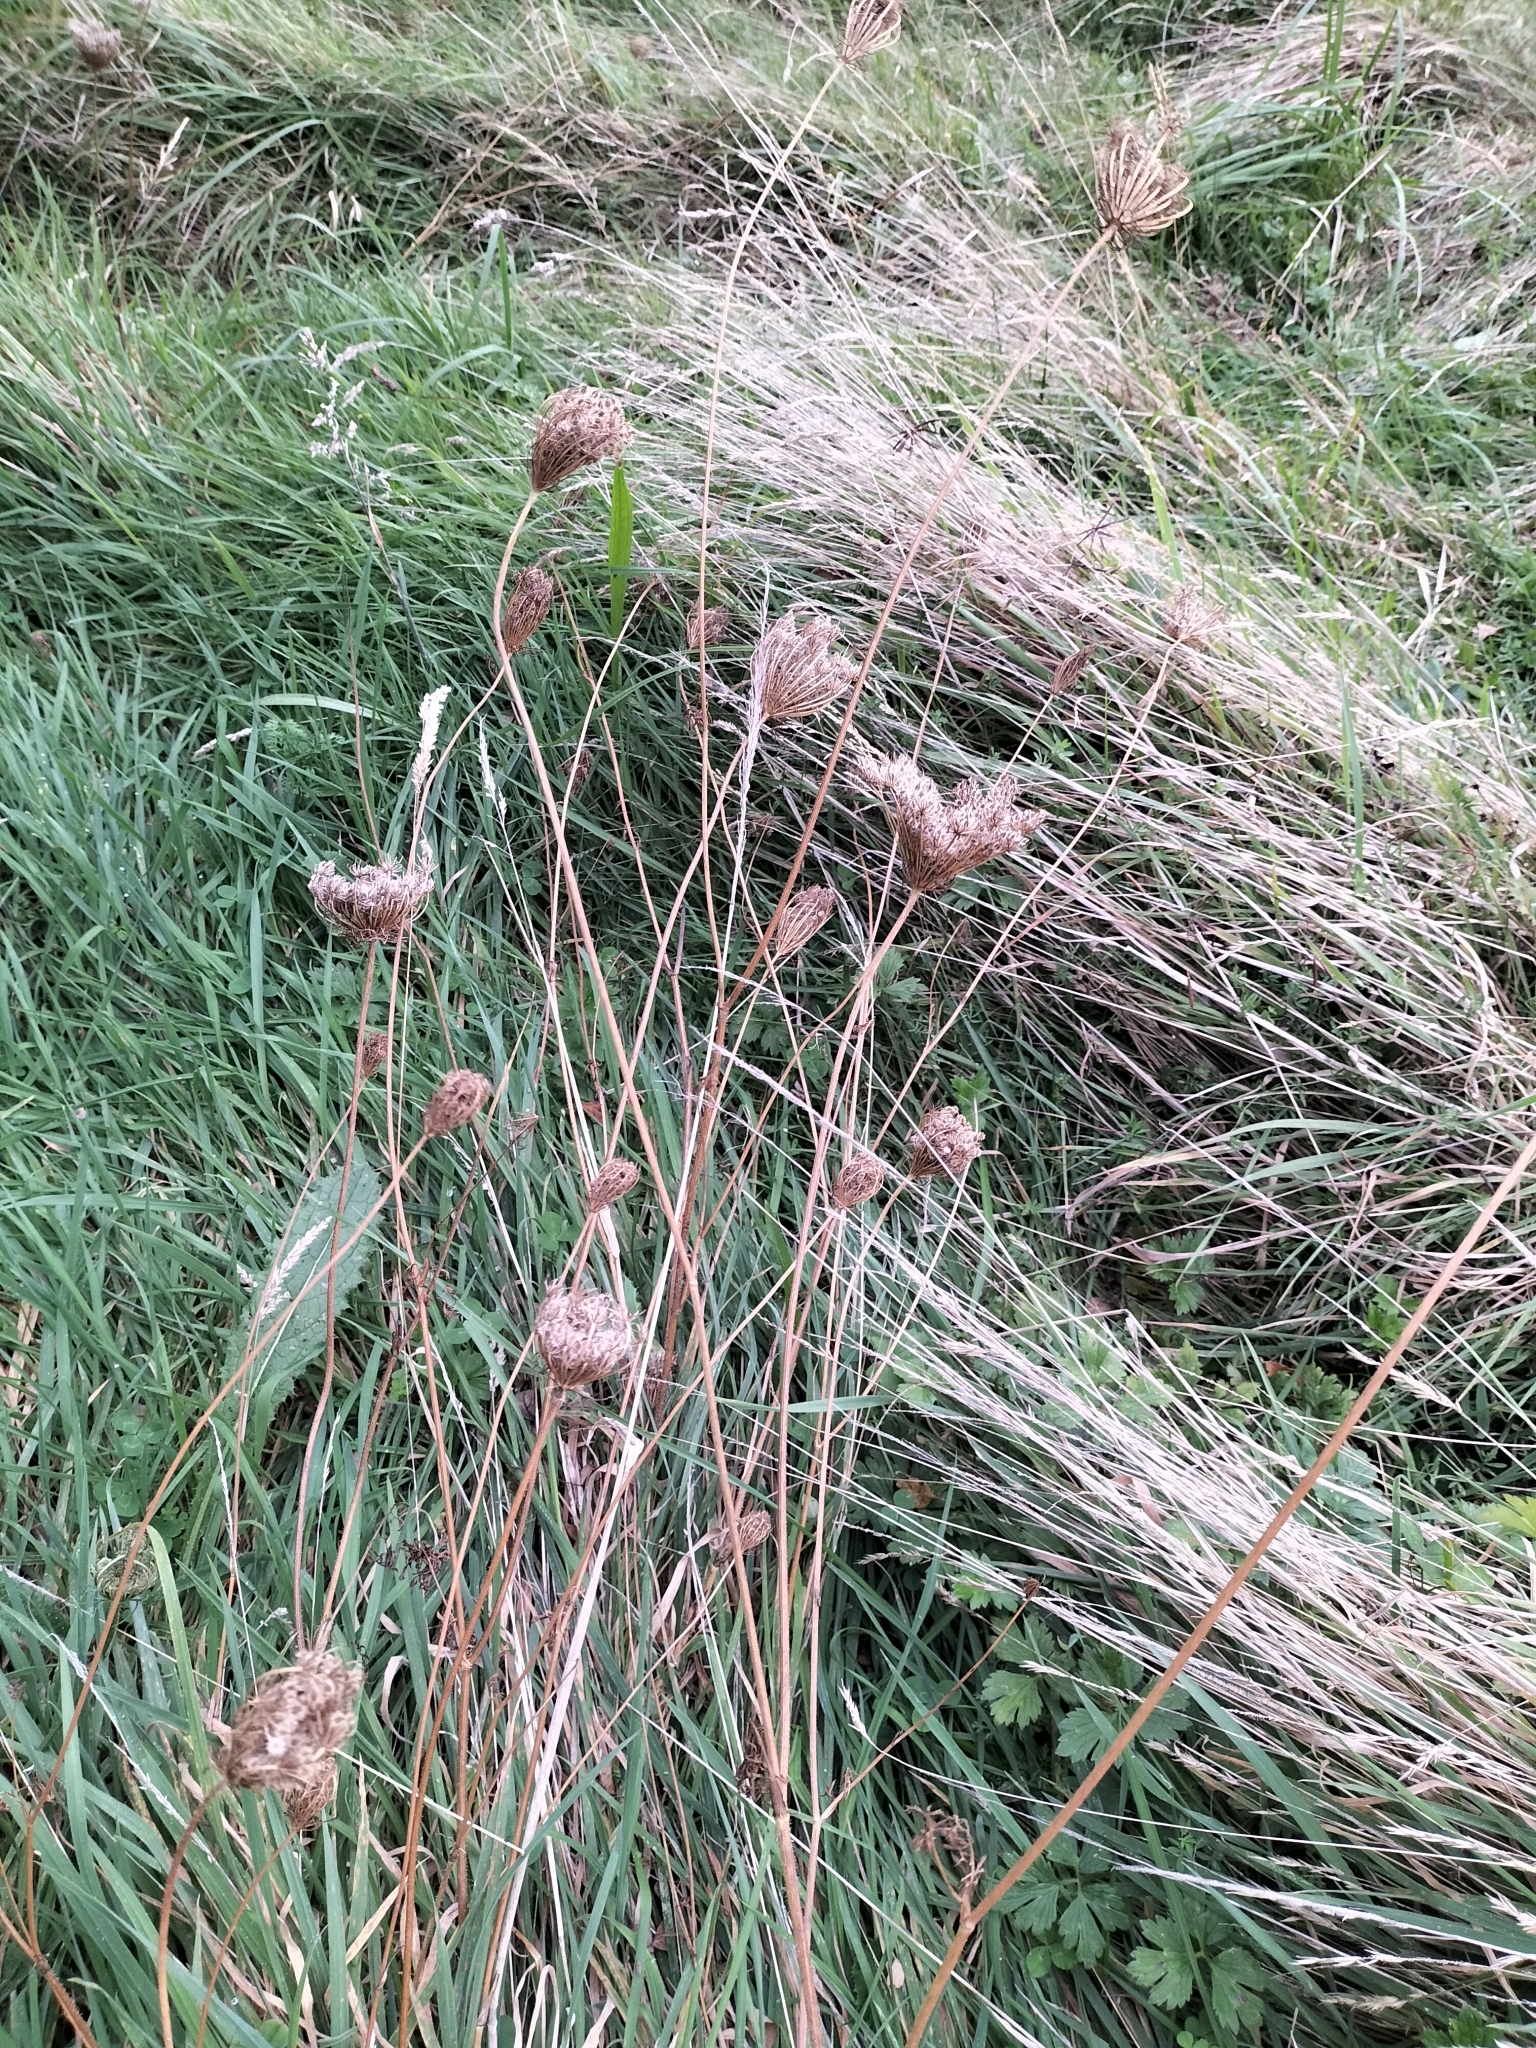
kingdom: Plantae
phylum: Tracheophyta
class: Magnoliopsida
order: Apiales
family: Apiaceae
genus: Daucus
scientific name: Daucus carota
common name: Wild carrot
